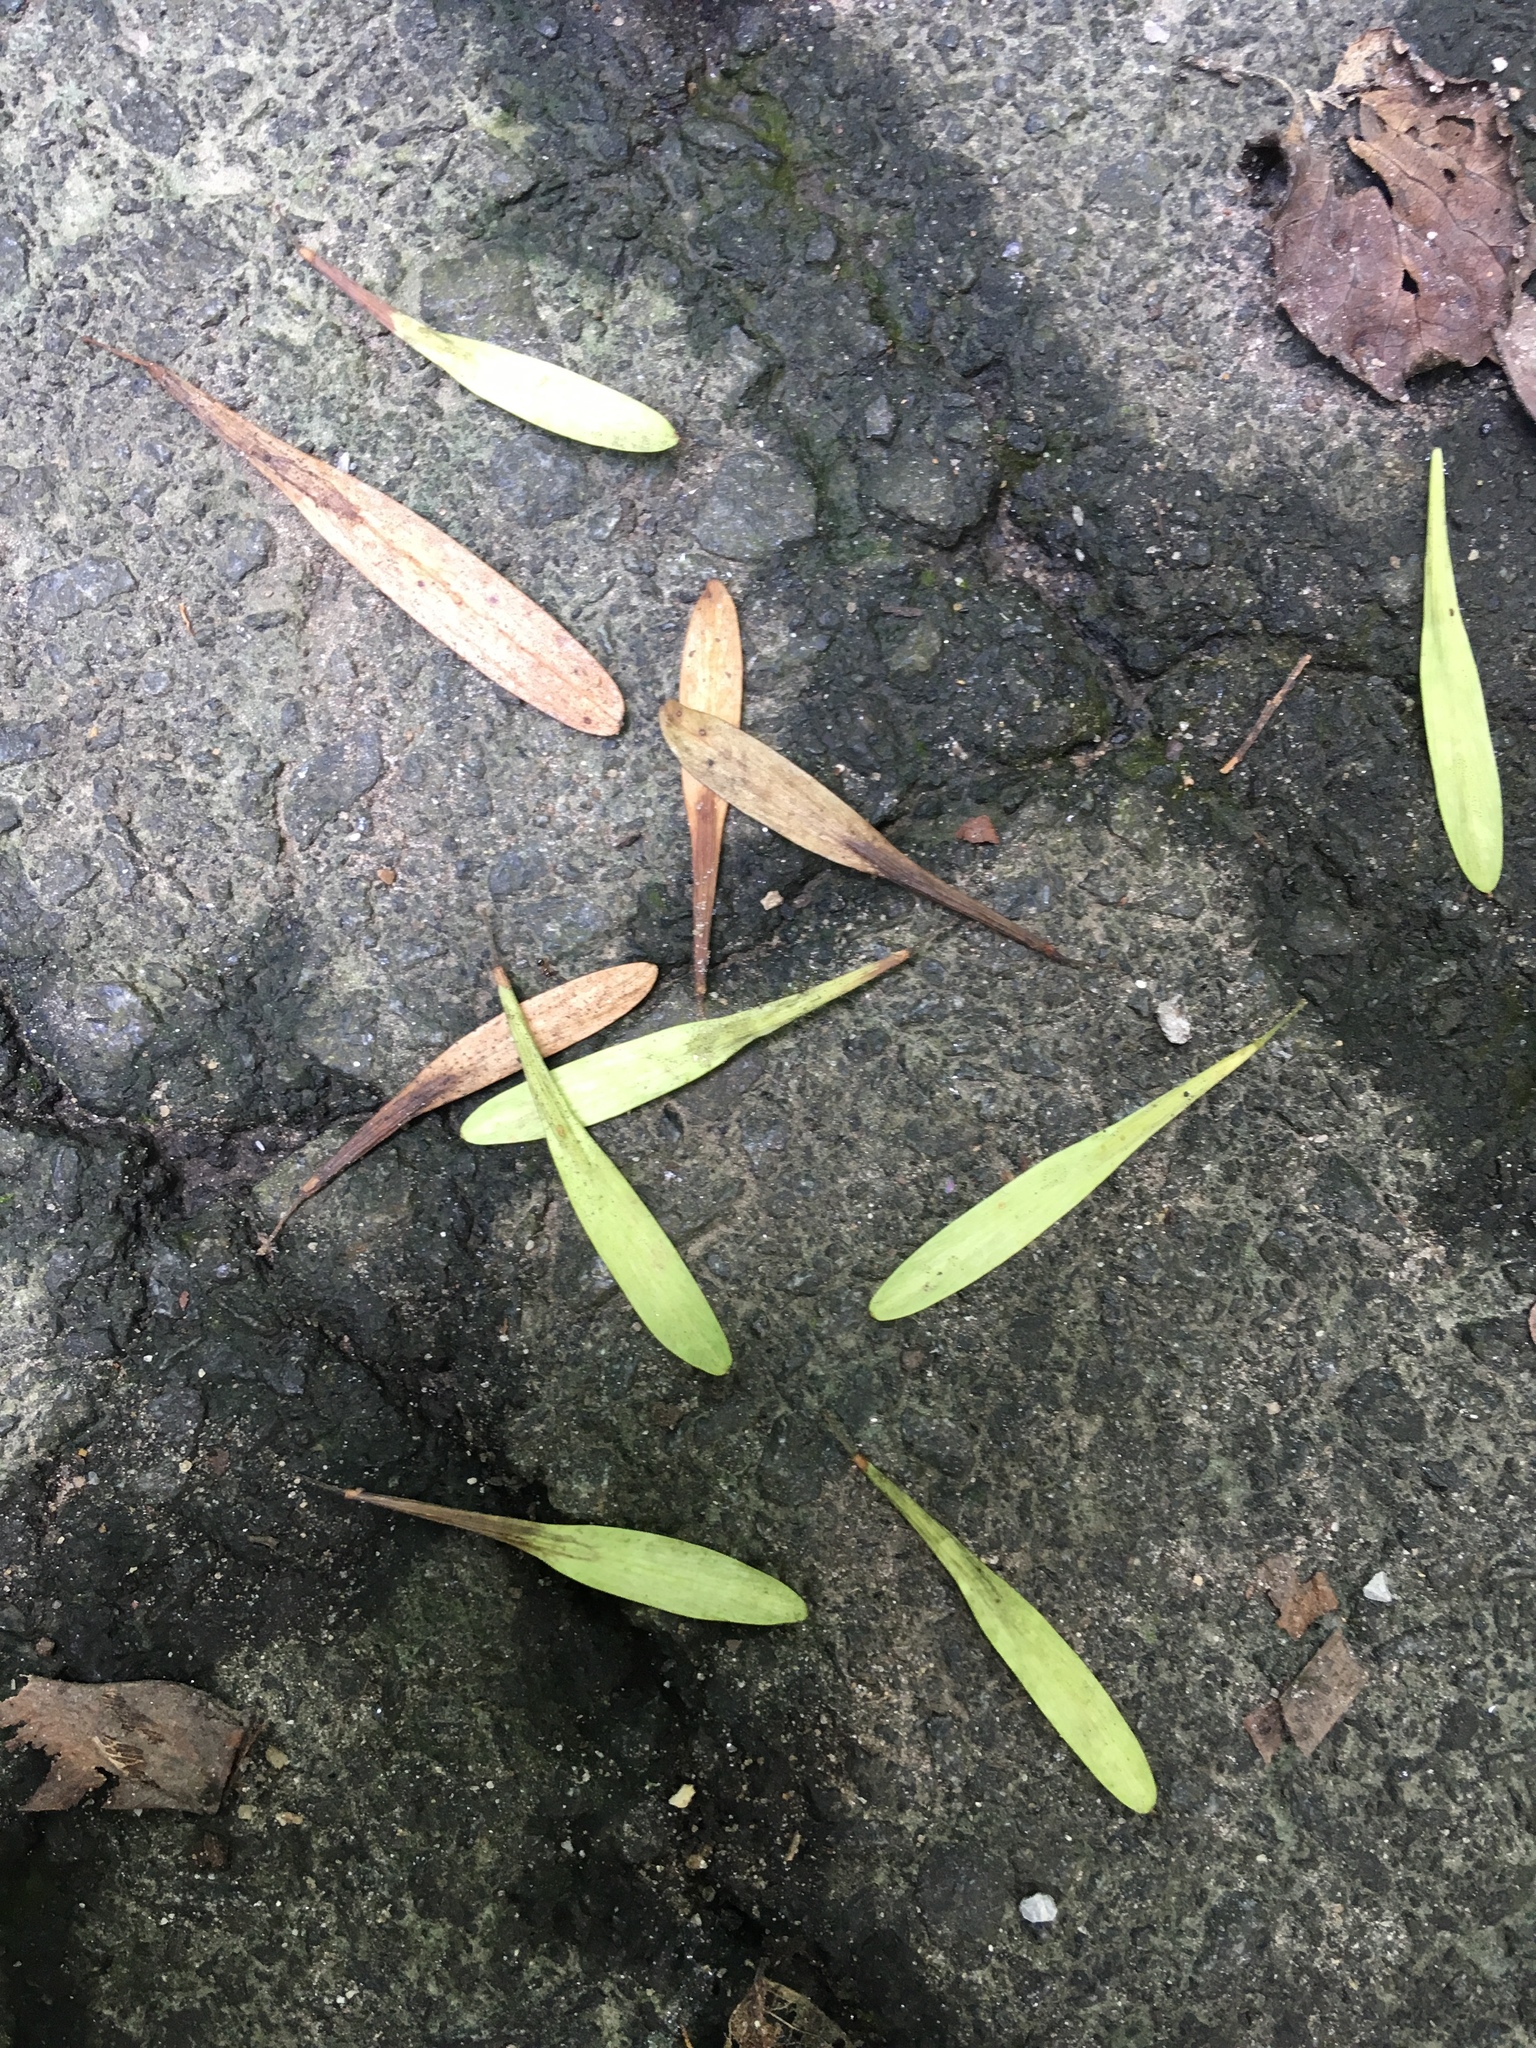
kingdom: Plantae
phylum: Tracheophyta
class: Magnoliopsida
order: Lamiales
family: Oleaceae
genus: Fraxinus
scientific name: Fraxinus profunda
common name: Pumpkin ash
